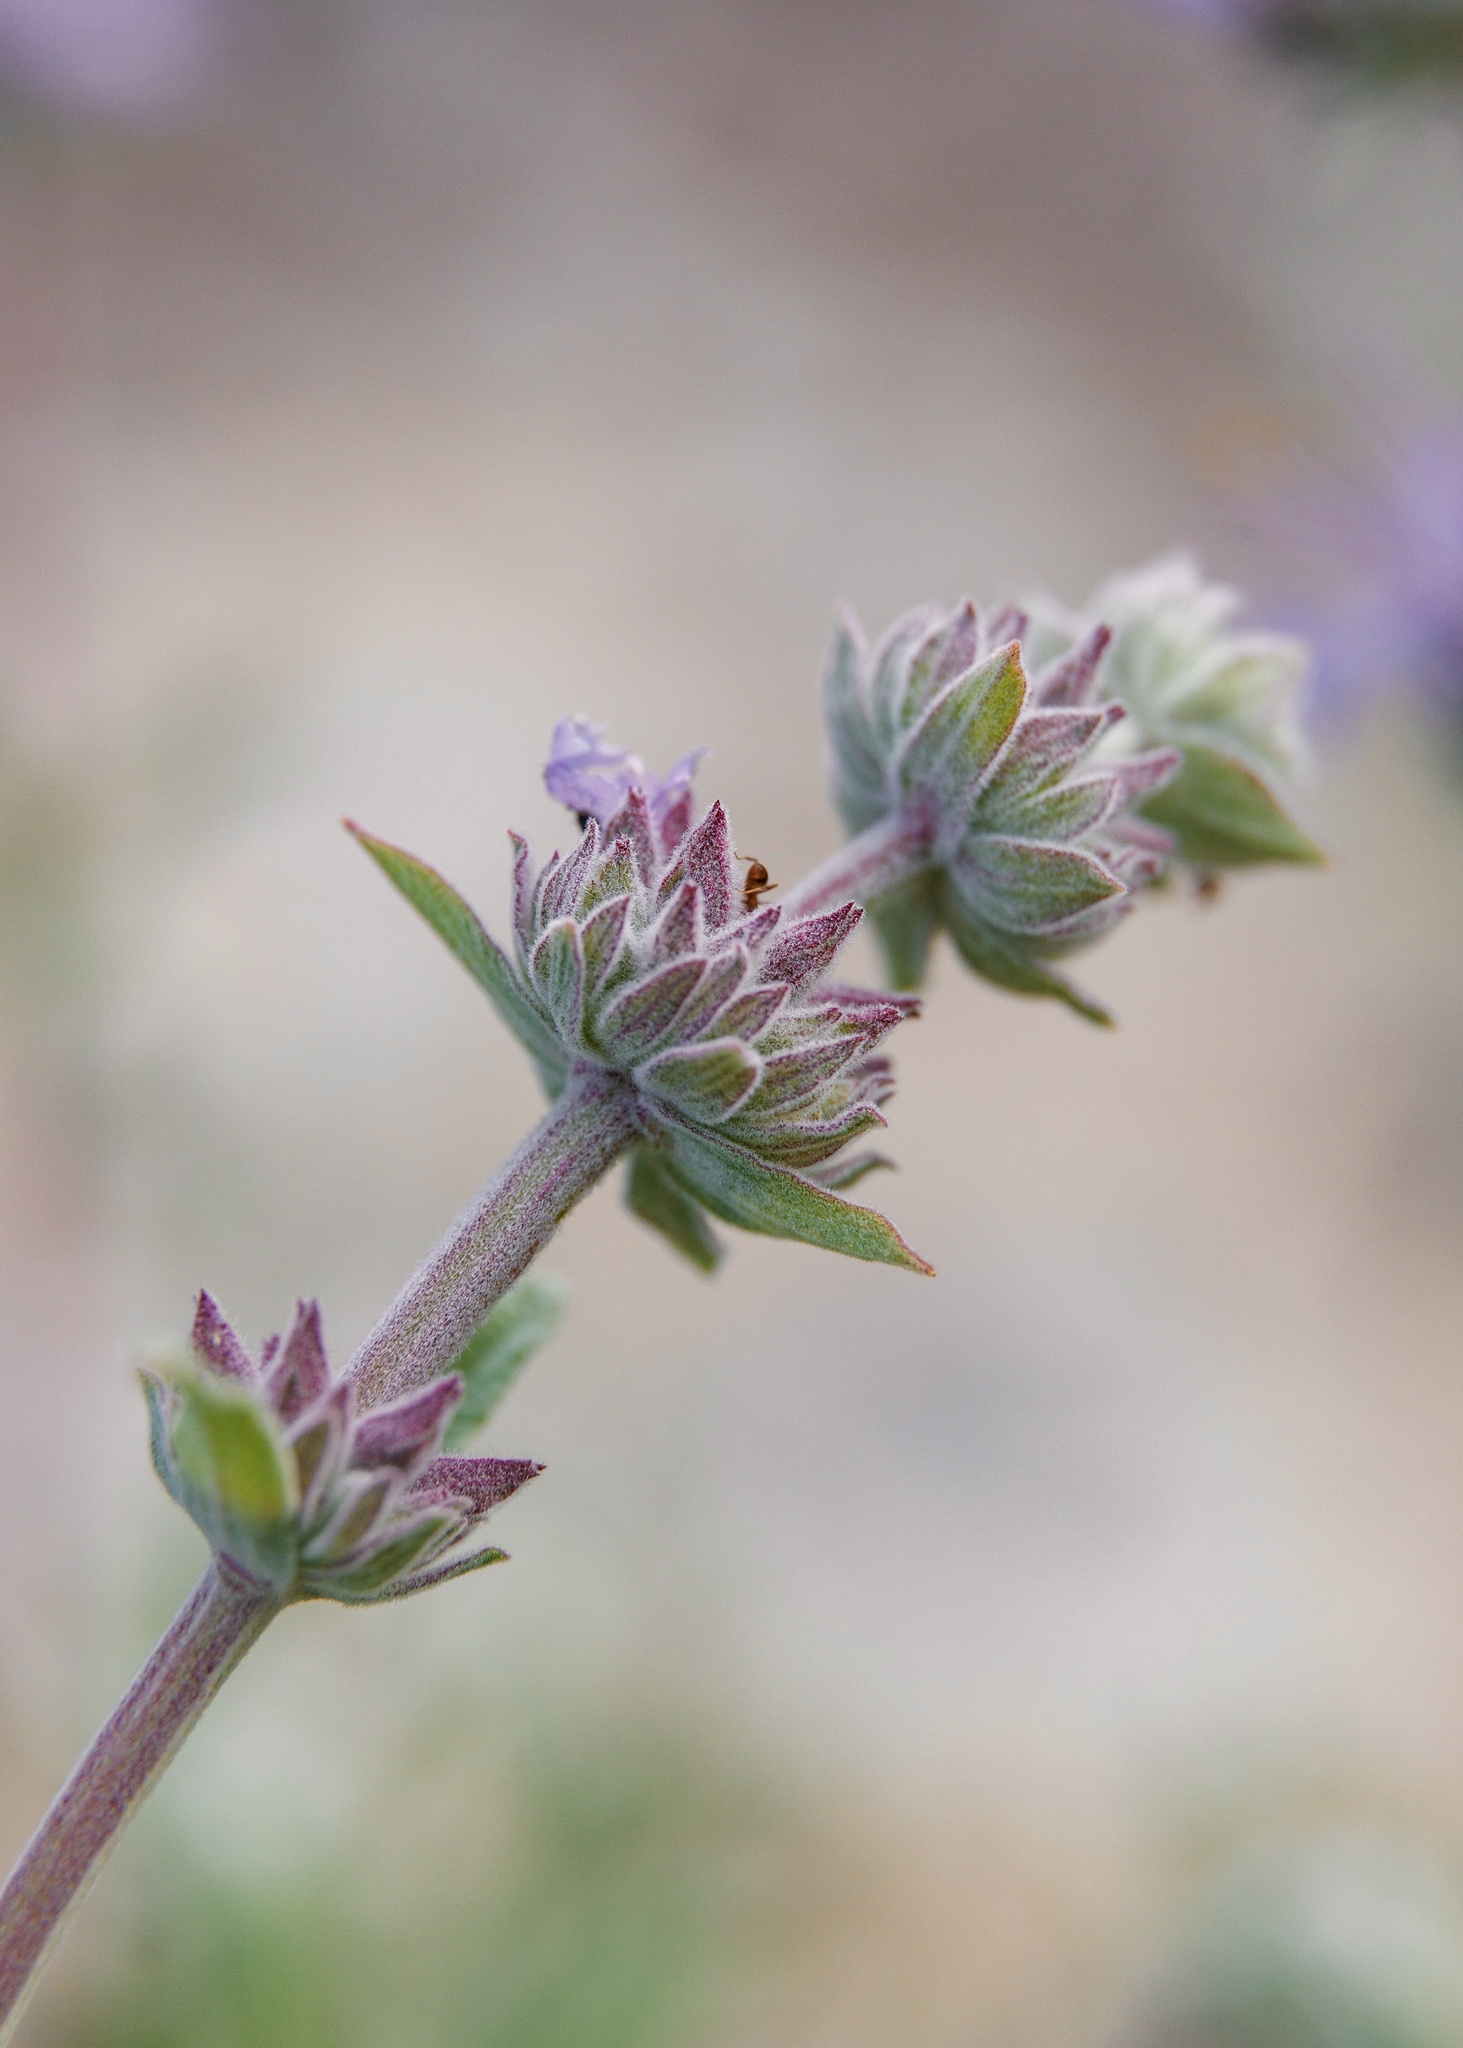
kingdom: Plantae
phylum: Tracheophyta
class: Magnoliopsida
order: Lamiales
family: Lamiaceae
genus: Salvia
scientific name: Salvia leucophylla
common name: Purple sage
